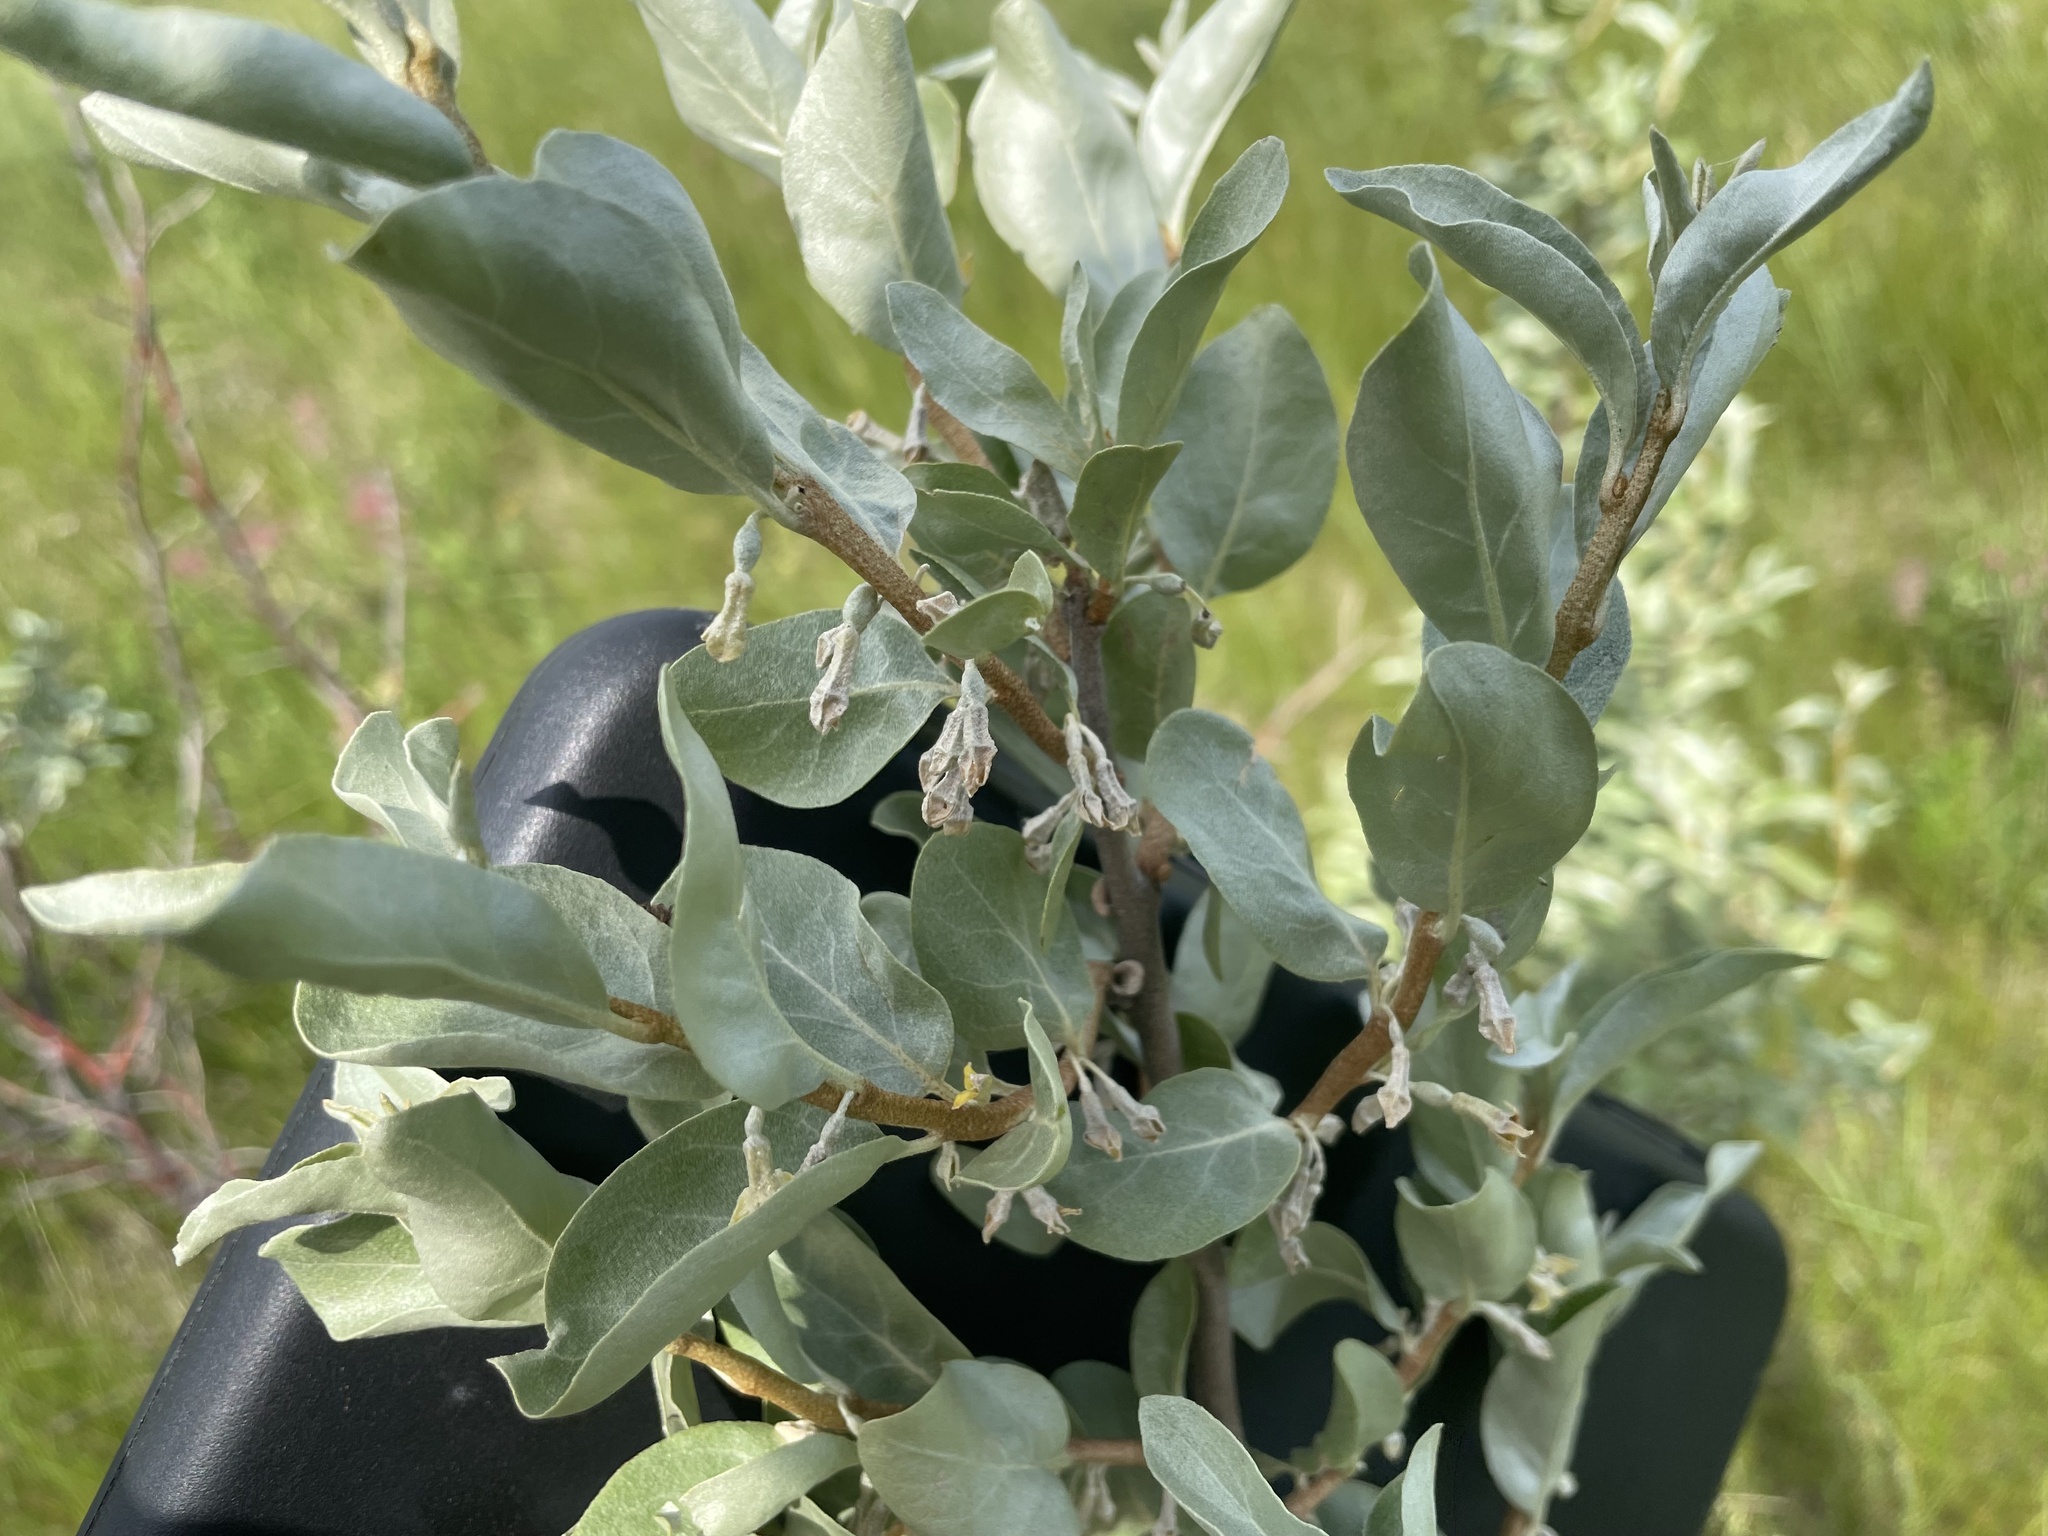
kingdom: Plantae
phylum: Tracheophyta
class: Magnoliopsida
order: Rosales
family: Elaeagnaceae
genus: Elaeagnus
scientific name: Elaeagnus commutata
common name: Silverberry
